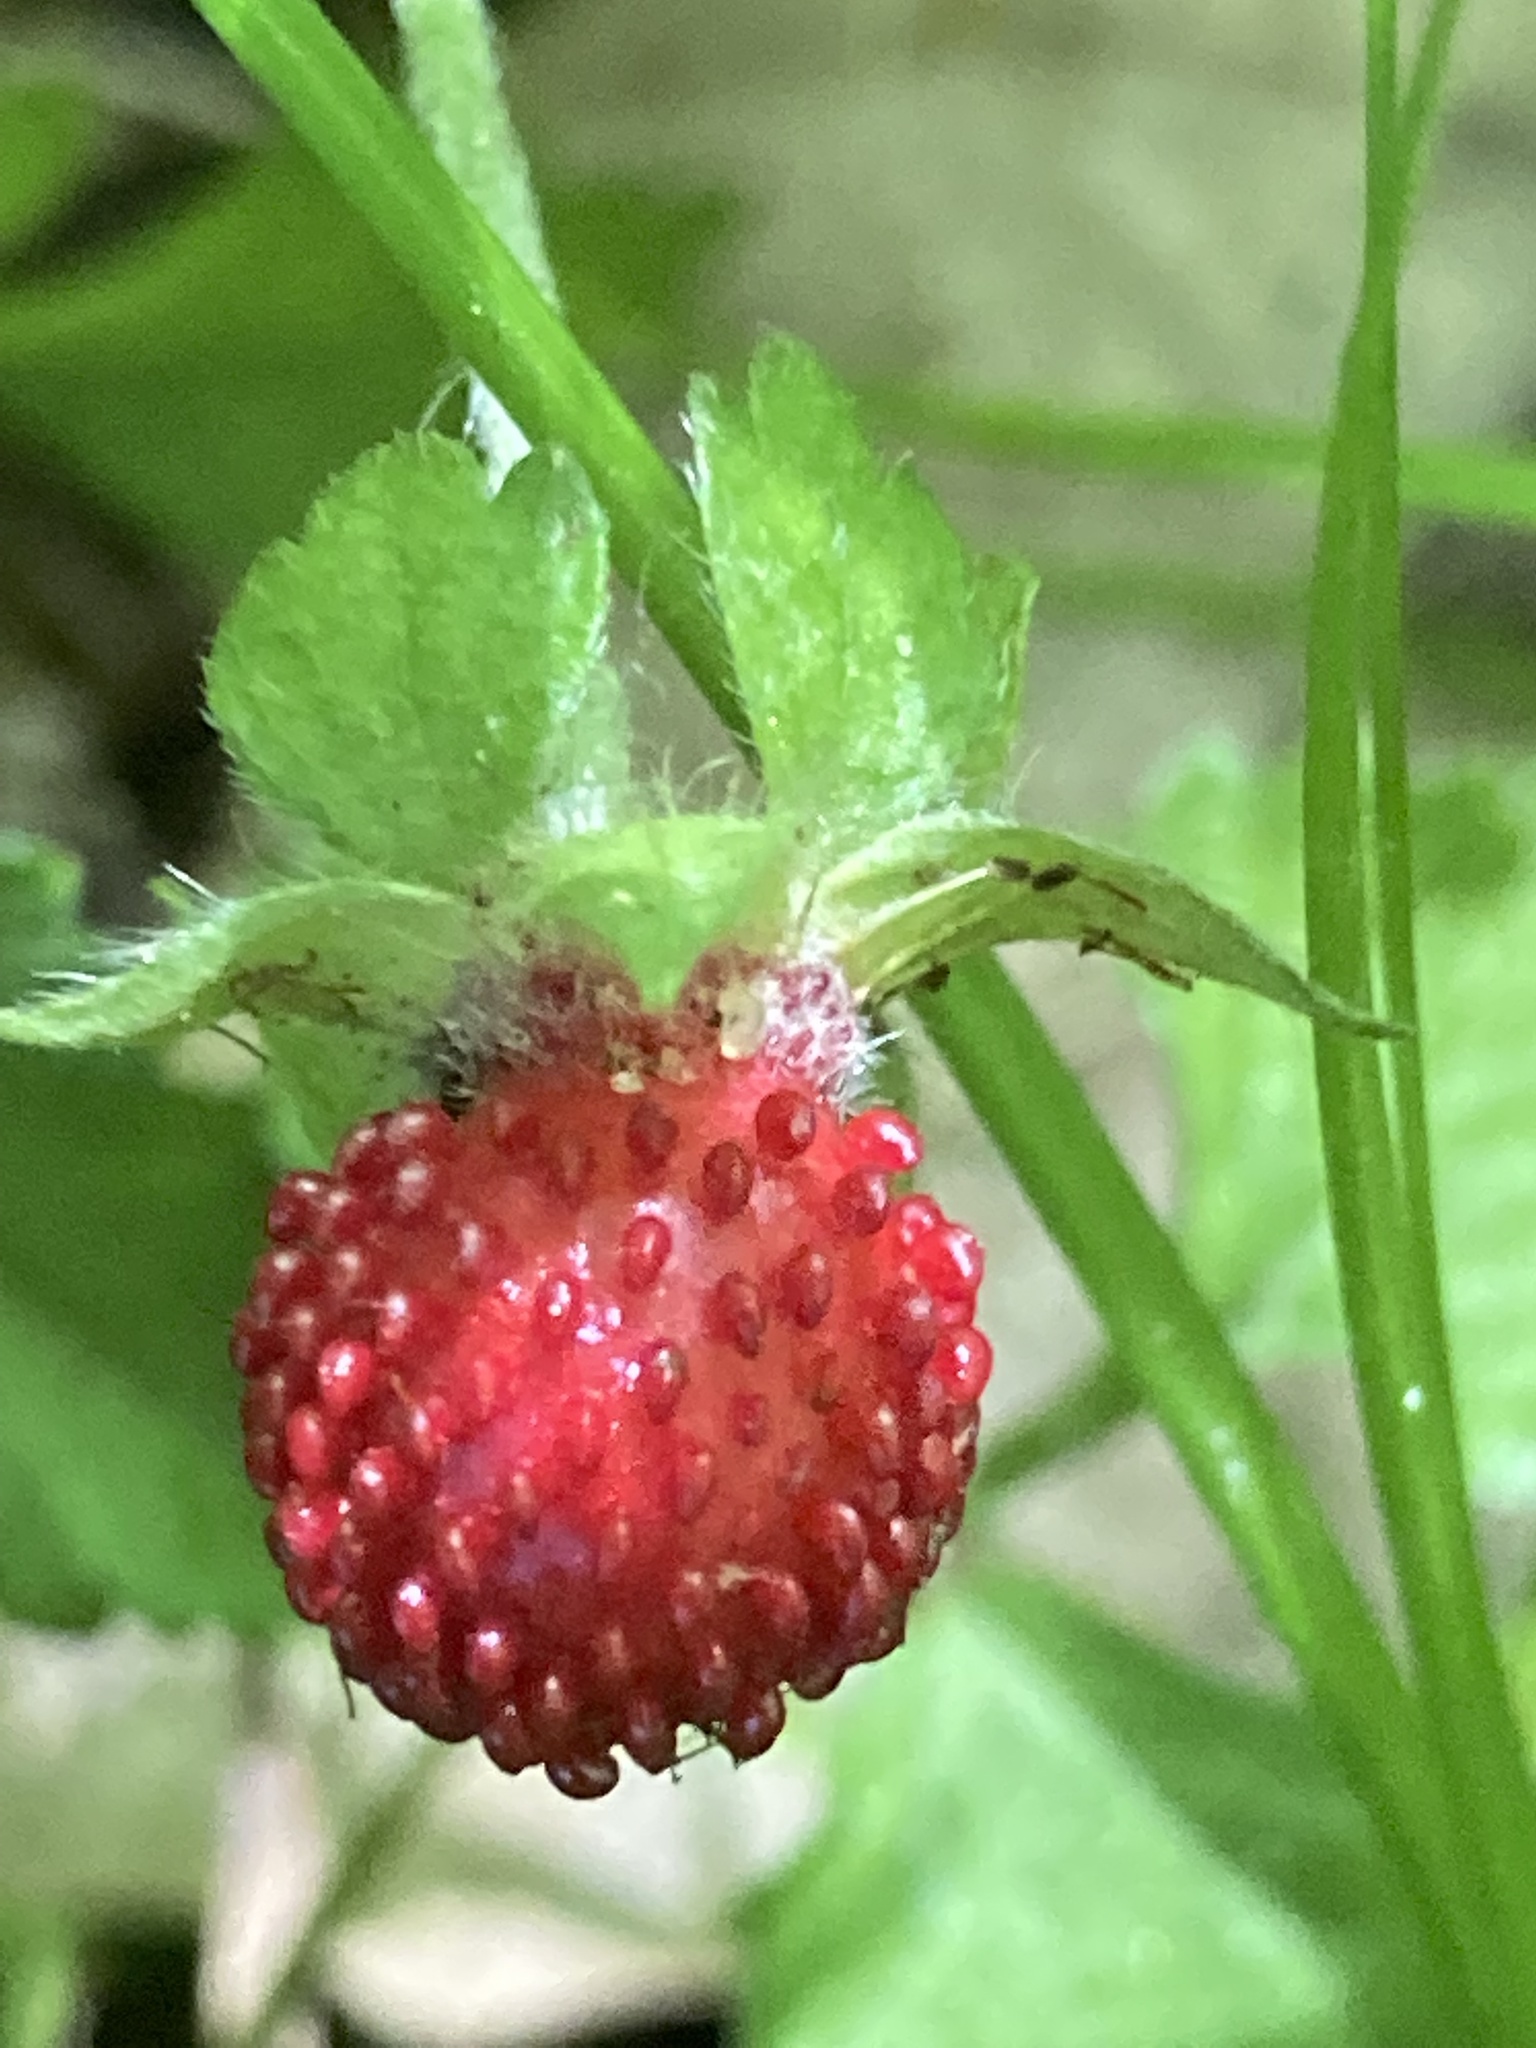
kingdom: Plantae
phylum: Tracheophyta
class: Magnoliopsida
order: Rosales
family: Rosaceae
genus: Potentilla
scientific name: Potentilla indica
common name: Yellow-flowered strawberry
